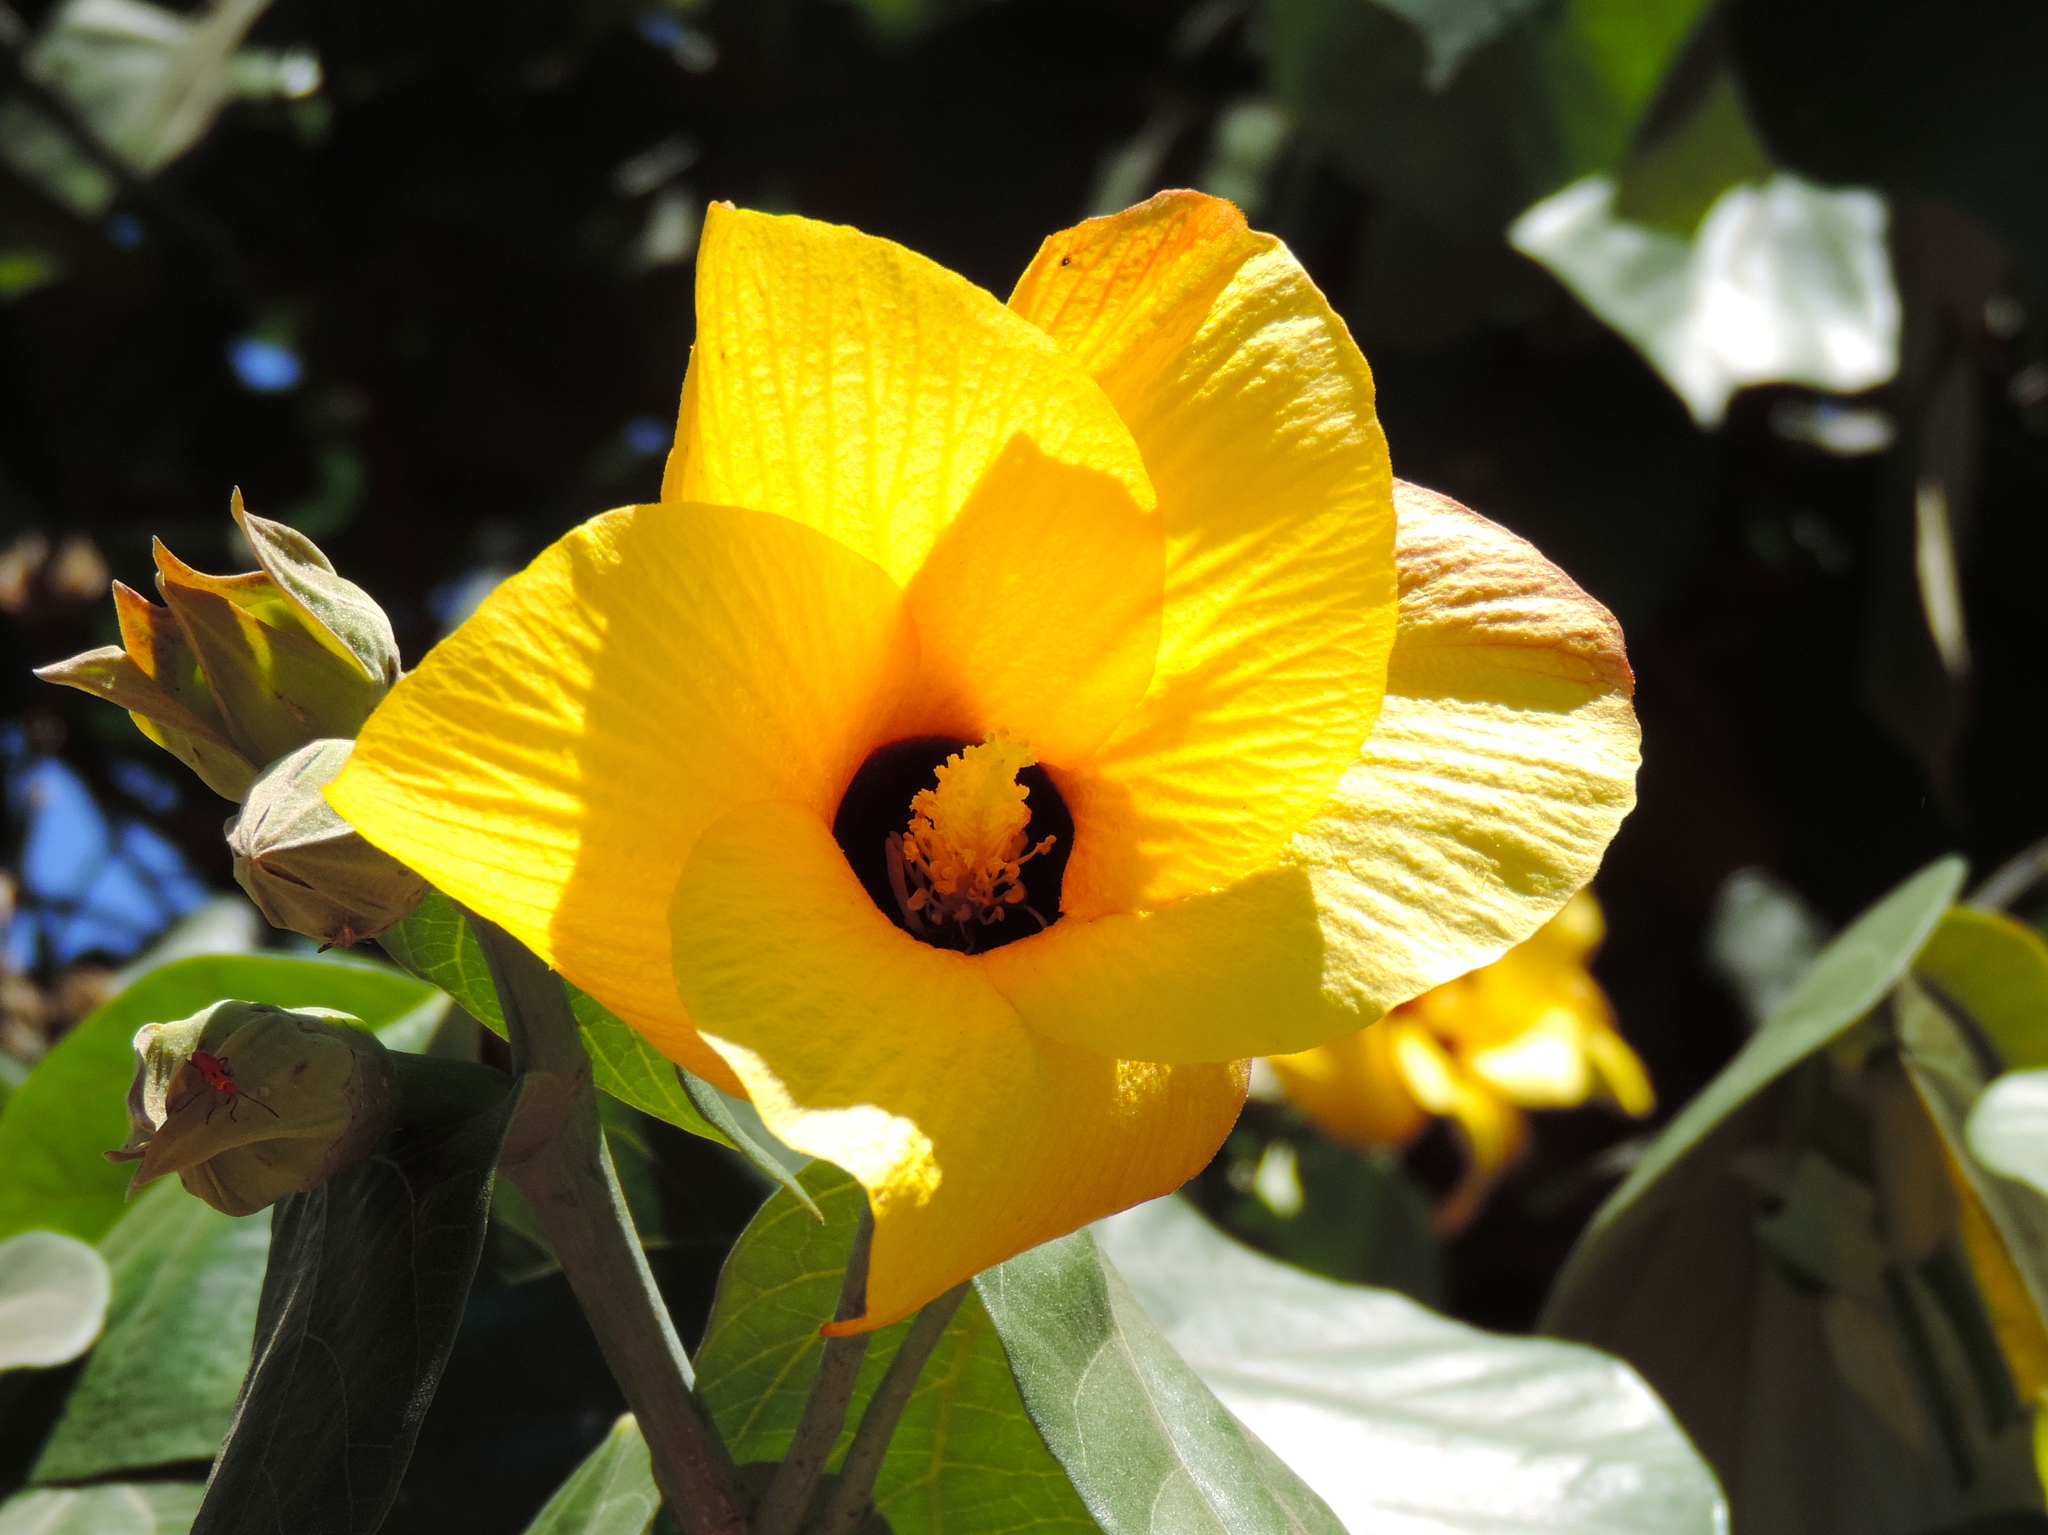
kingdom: Plantae
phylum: Tracheophyta
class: Magnoliopsida
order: Malvales
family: Malvaceae
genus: Talipariti
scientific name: Talipariti tiliaceum
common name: Sea hibiscus
